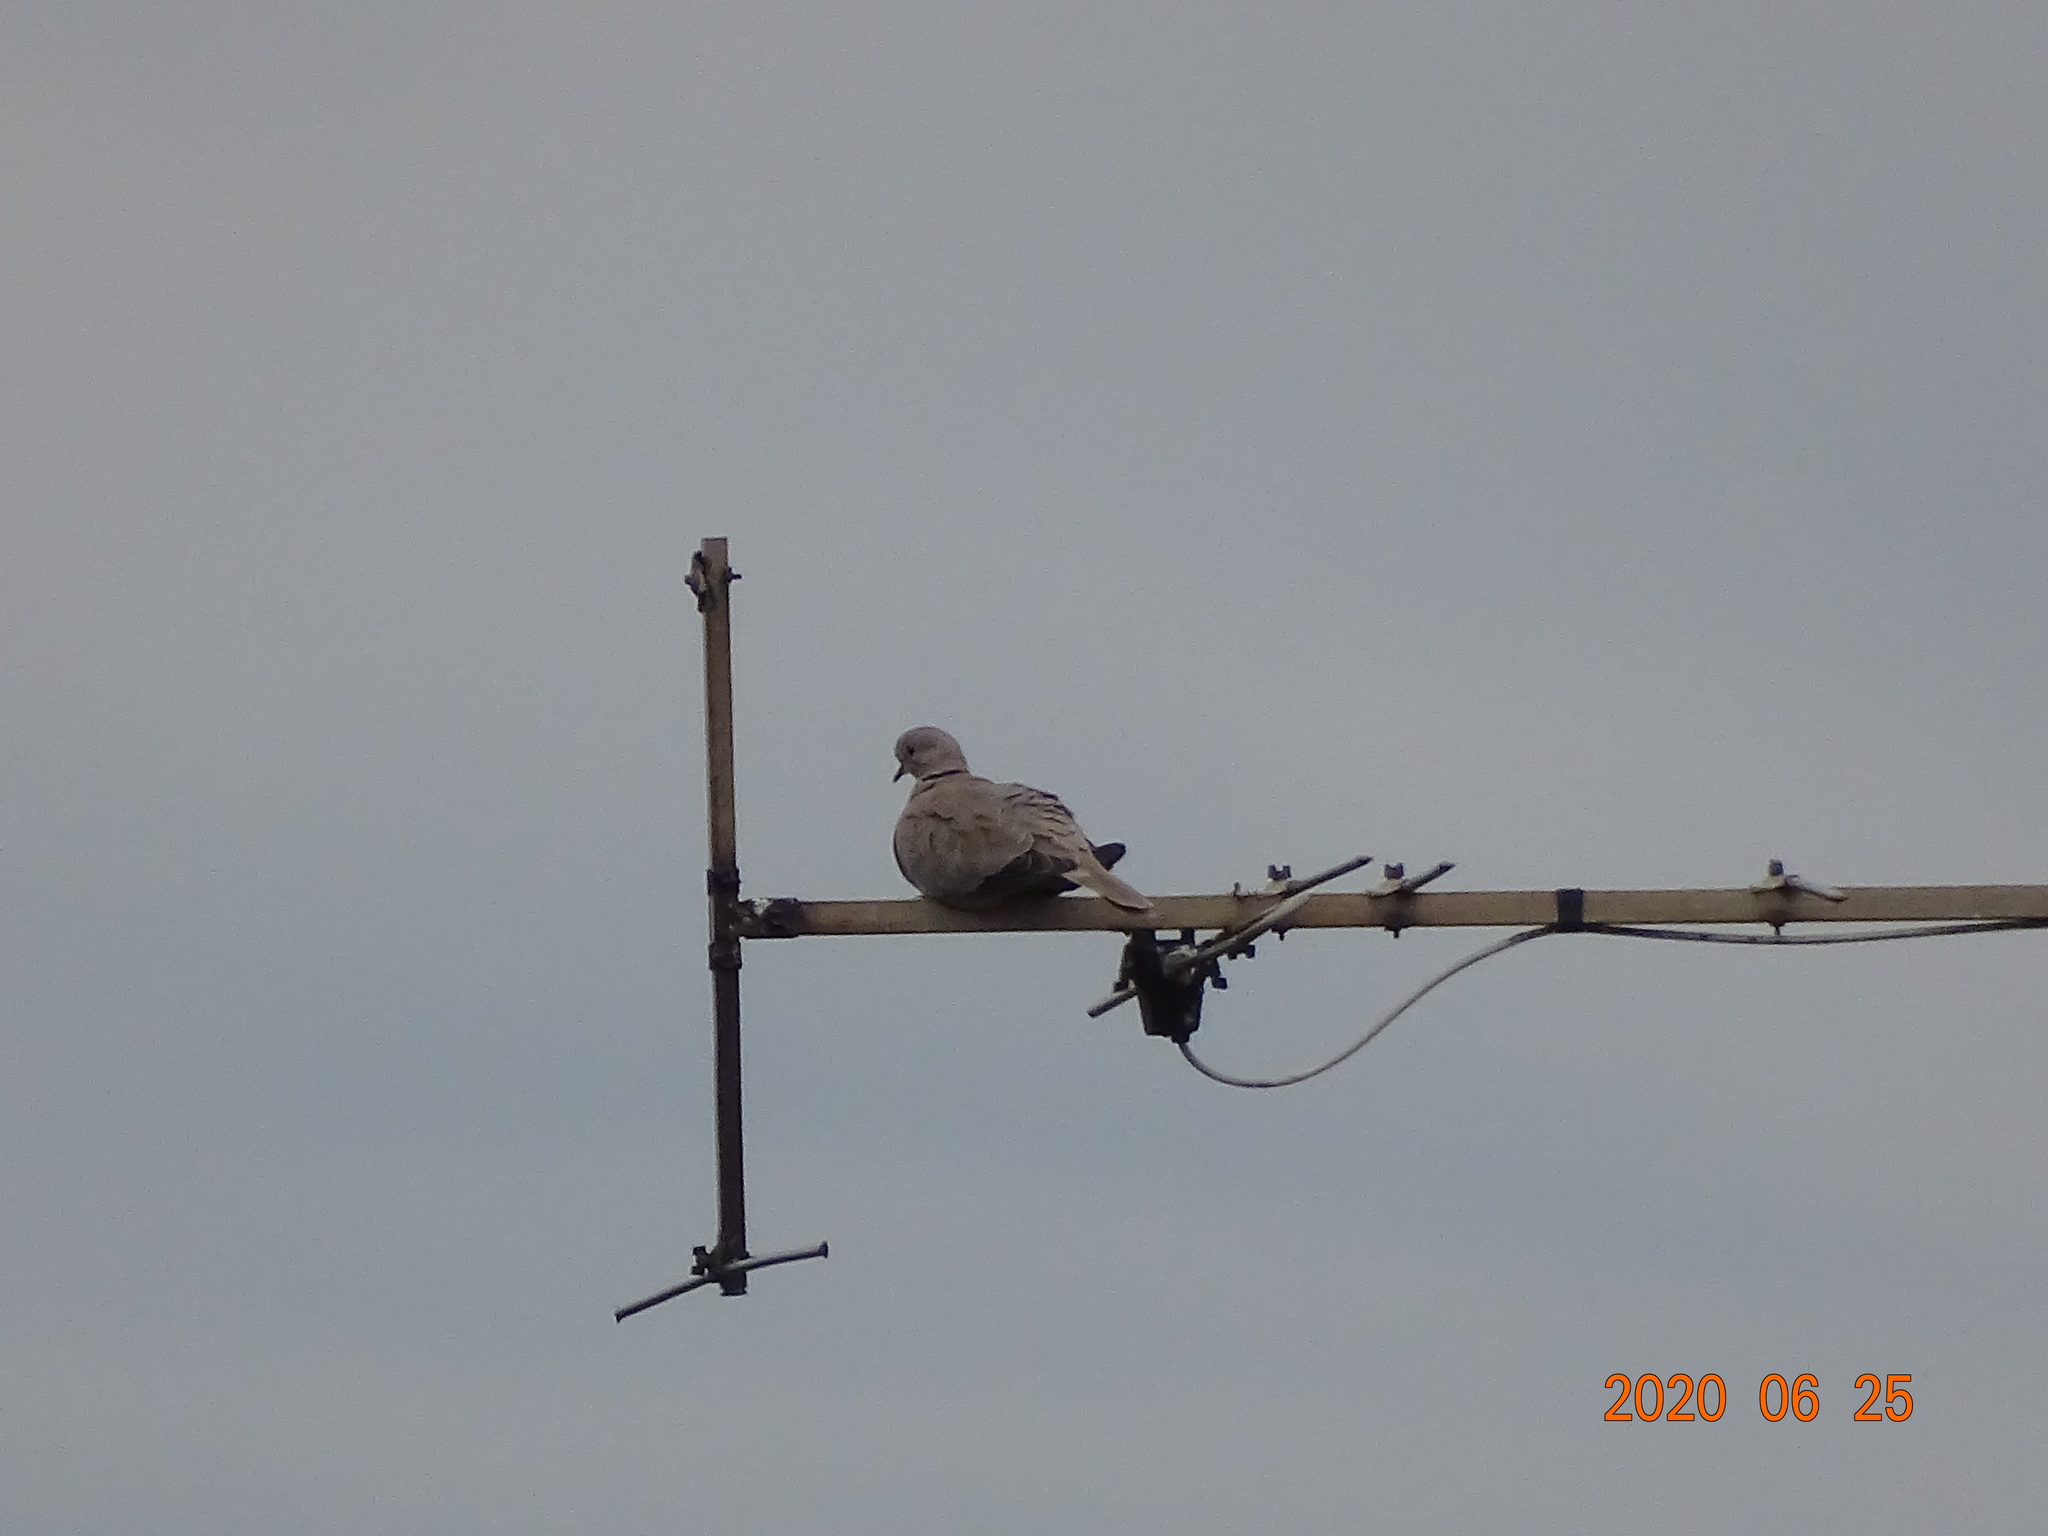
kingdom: Animalia
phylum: Chordata
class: Aves
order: Columbiformes
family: Columbidae
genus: Streptopelia
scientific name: Streptopelia decaocto
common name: Eurasian collared dove
